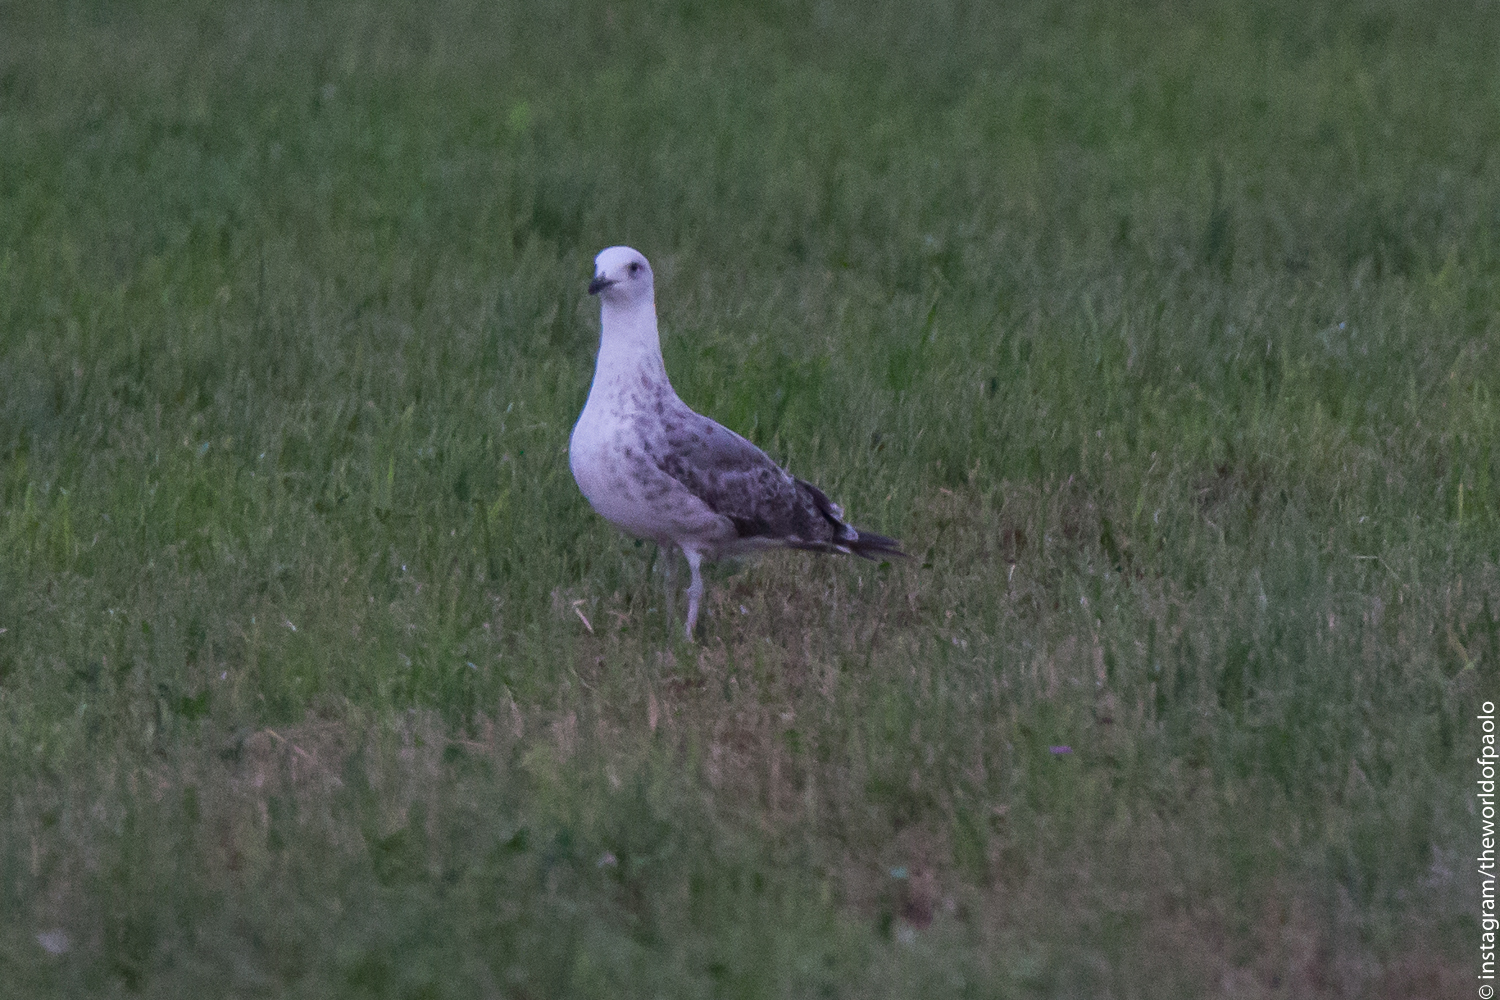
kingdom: Animalia
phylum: Chordata
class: Aves
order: Charadriiformes
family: Laridae
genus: Larus
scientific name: Larus michahellis
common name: Yellow-legged gull
